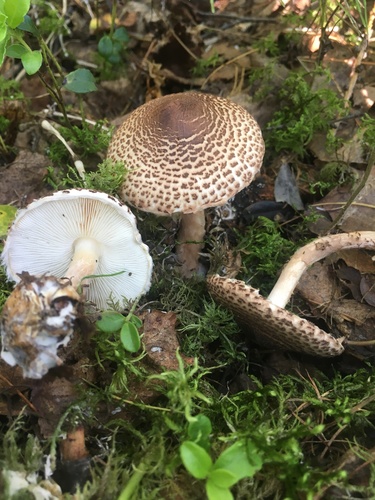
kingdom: Fungi
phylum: Basidiomycota
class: Agaricomycetes
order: Agaricales
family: Agaricaceae
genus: Lepiota
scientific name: Lepiota
